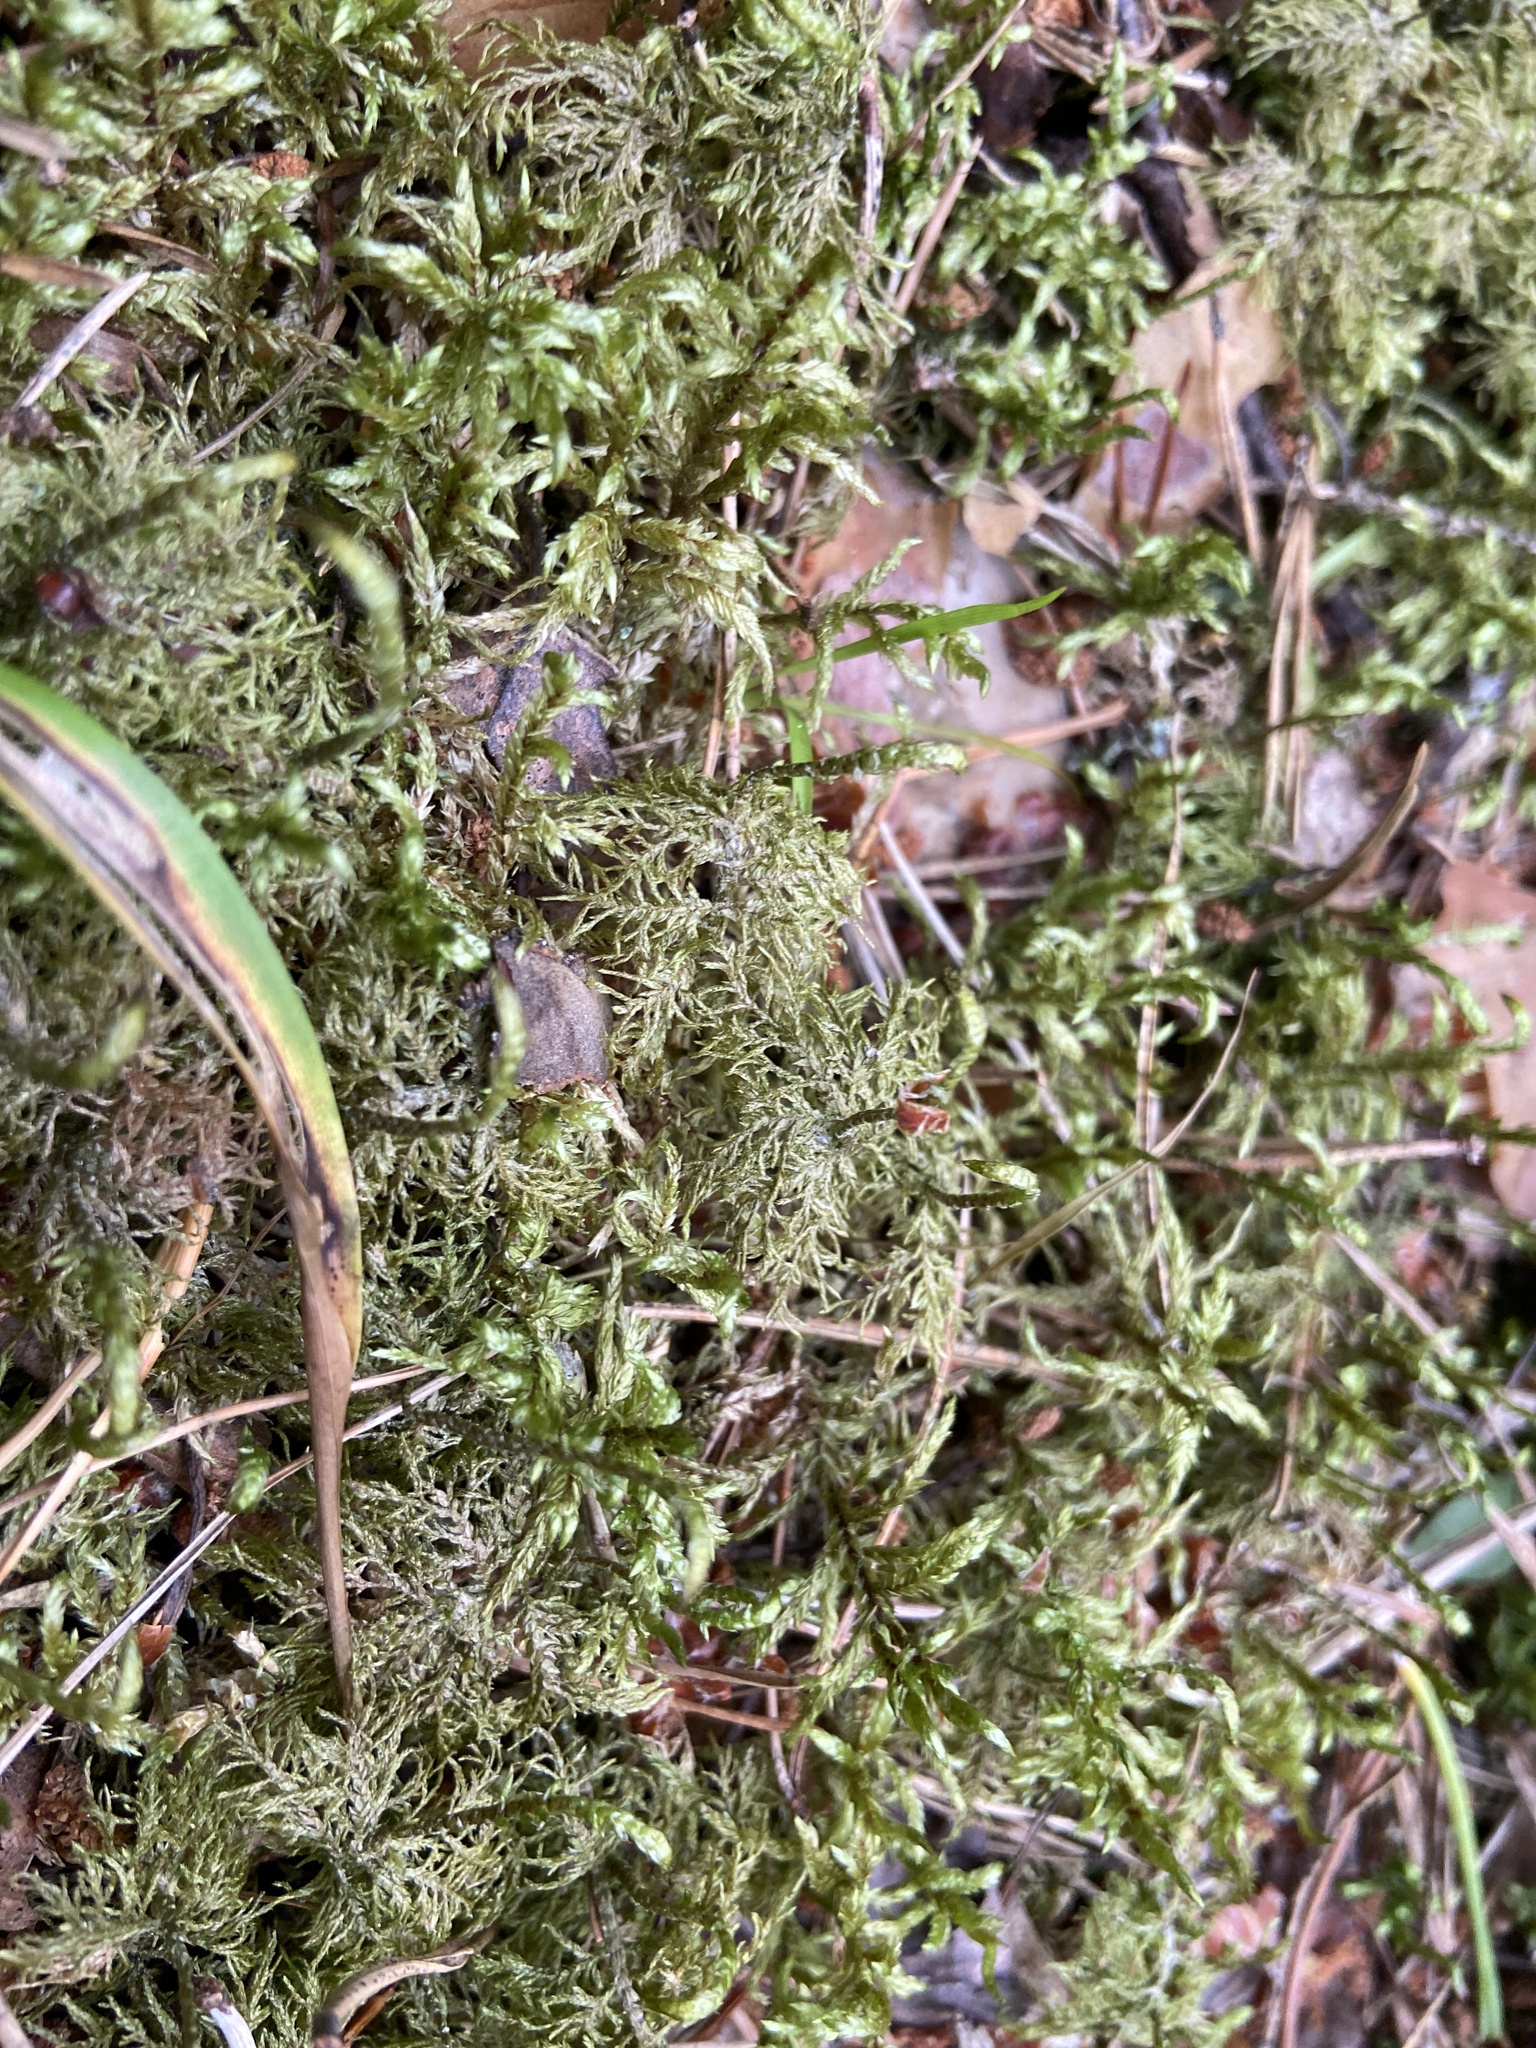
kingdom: Plantae
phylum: Bryophyta
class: Bryopsida
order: Hypnales
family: Hylocomiaceae
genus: Hylocomium
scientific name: Hylocomium splendens
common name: Stairstep moss
